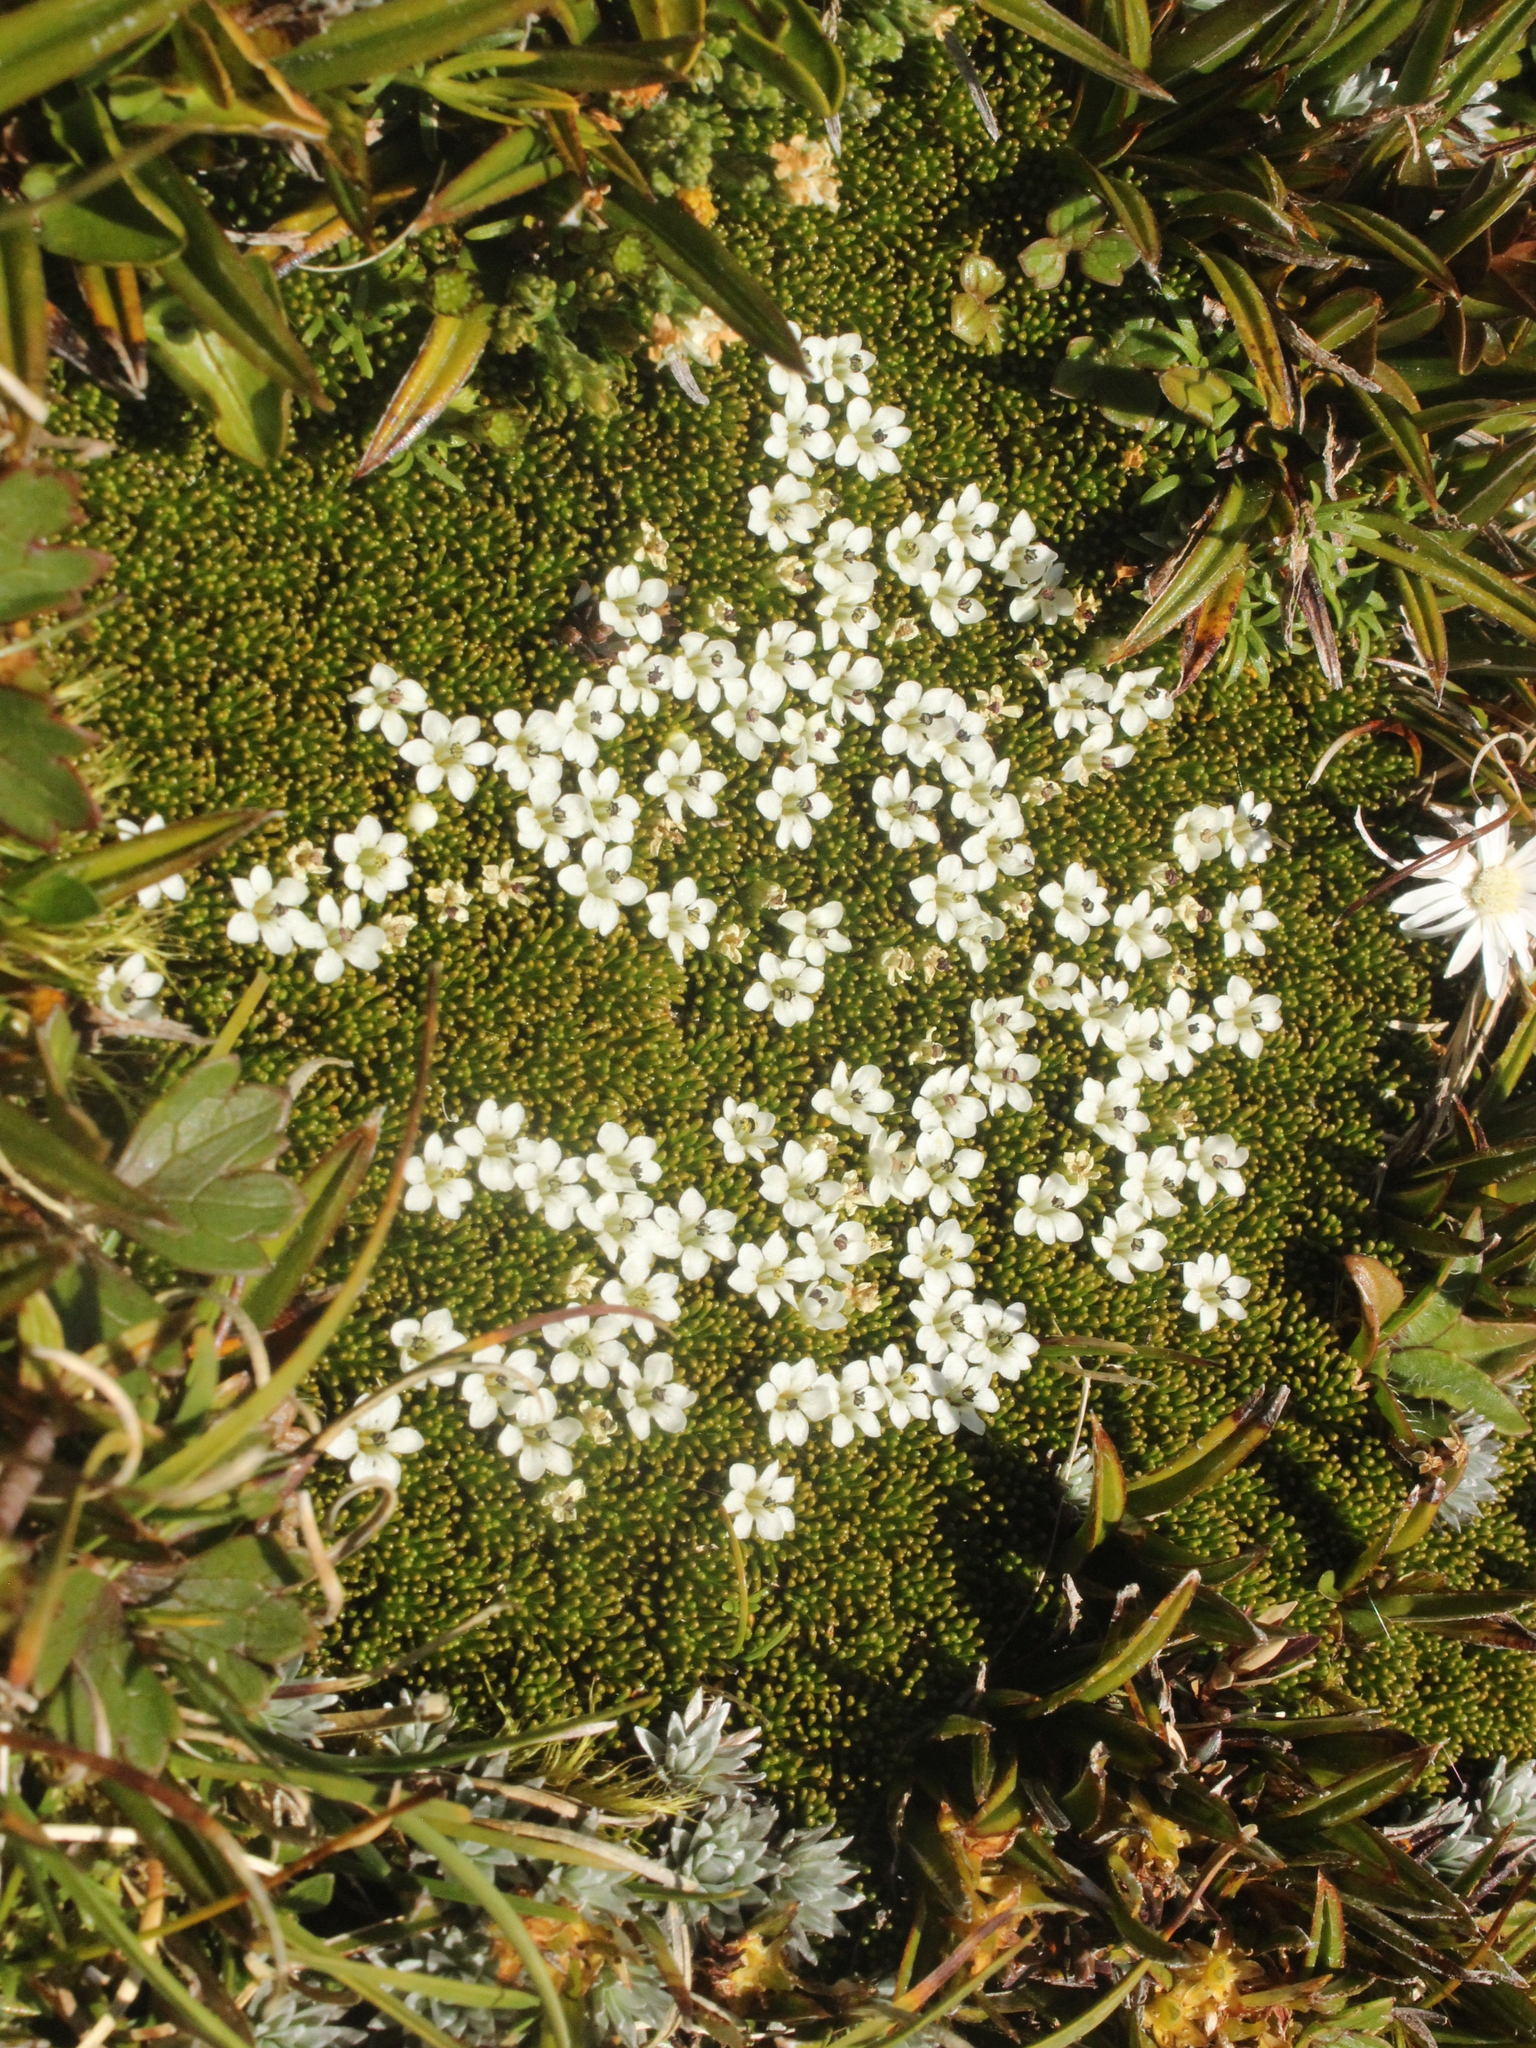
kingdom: Plantae
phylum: Tracheophyta
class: Magnoliopsida
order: Asterales
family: Stylidiaceae
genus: Phyllachne
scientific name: Phyllachne colensoi
